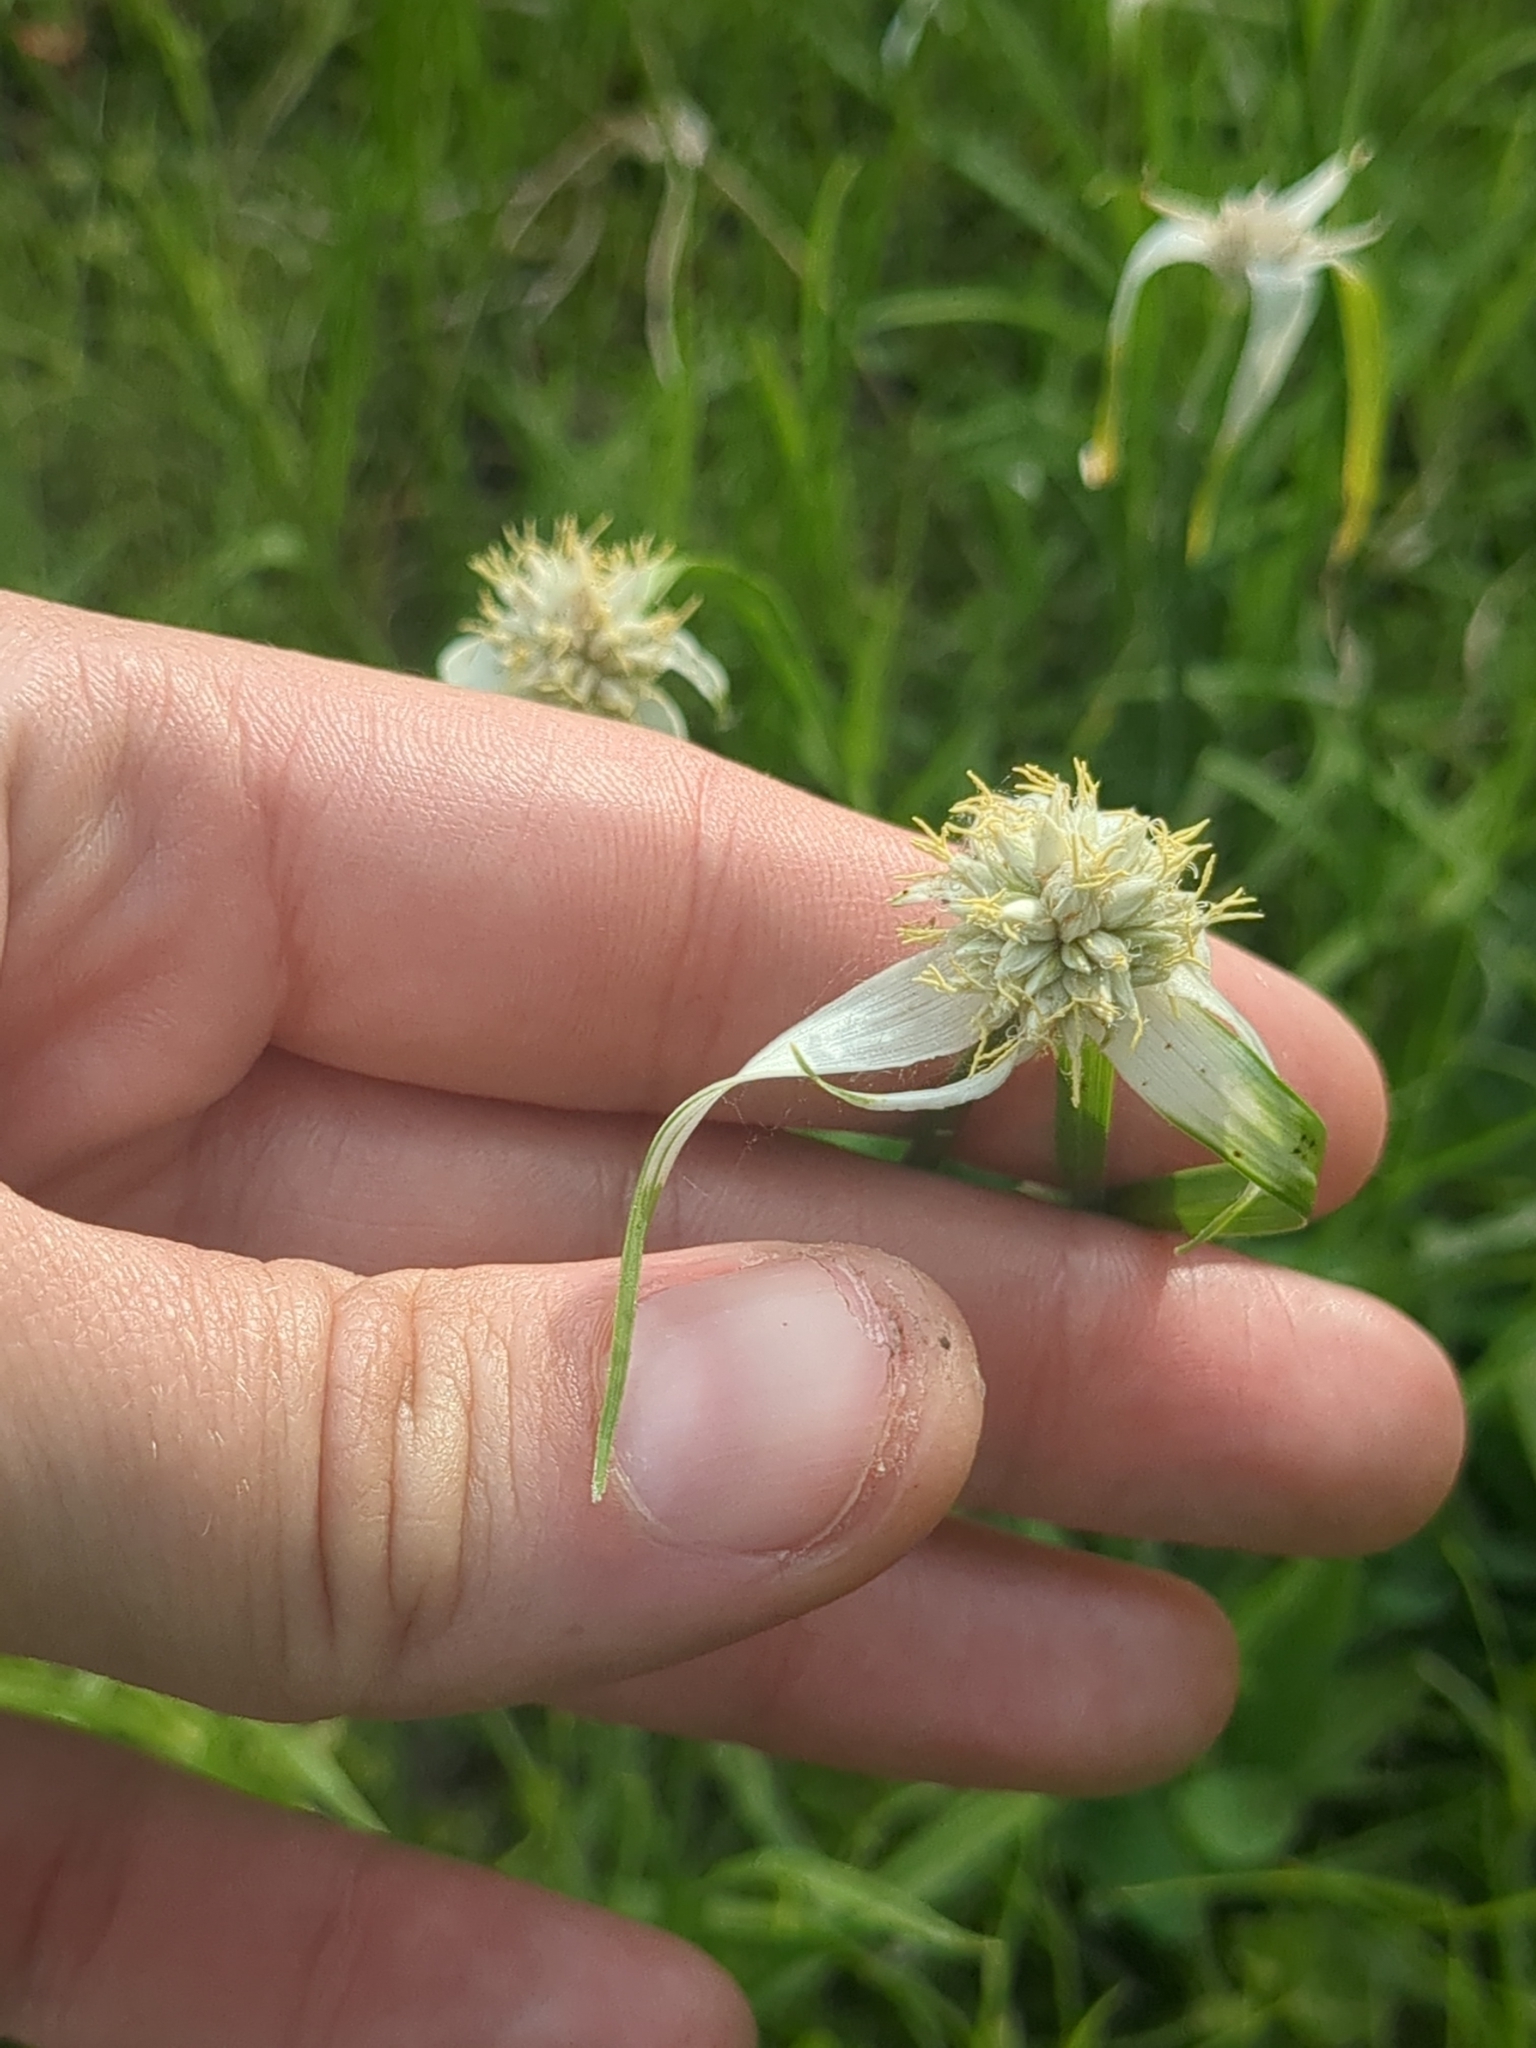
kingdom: Plantae
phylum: Tracheophyta
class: Liliopsida
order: Poales
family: Cyperaceae
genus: Rhynchospora
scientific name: Rhynchospora colorata
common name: Star sedge
